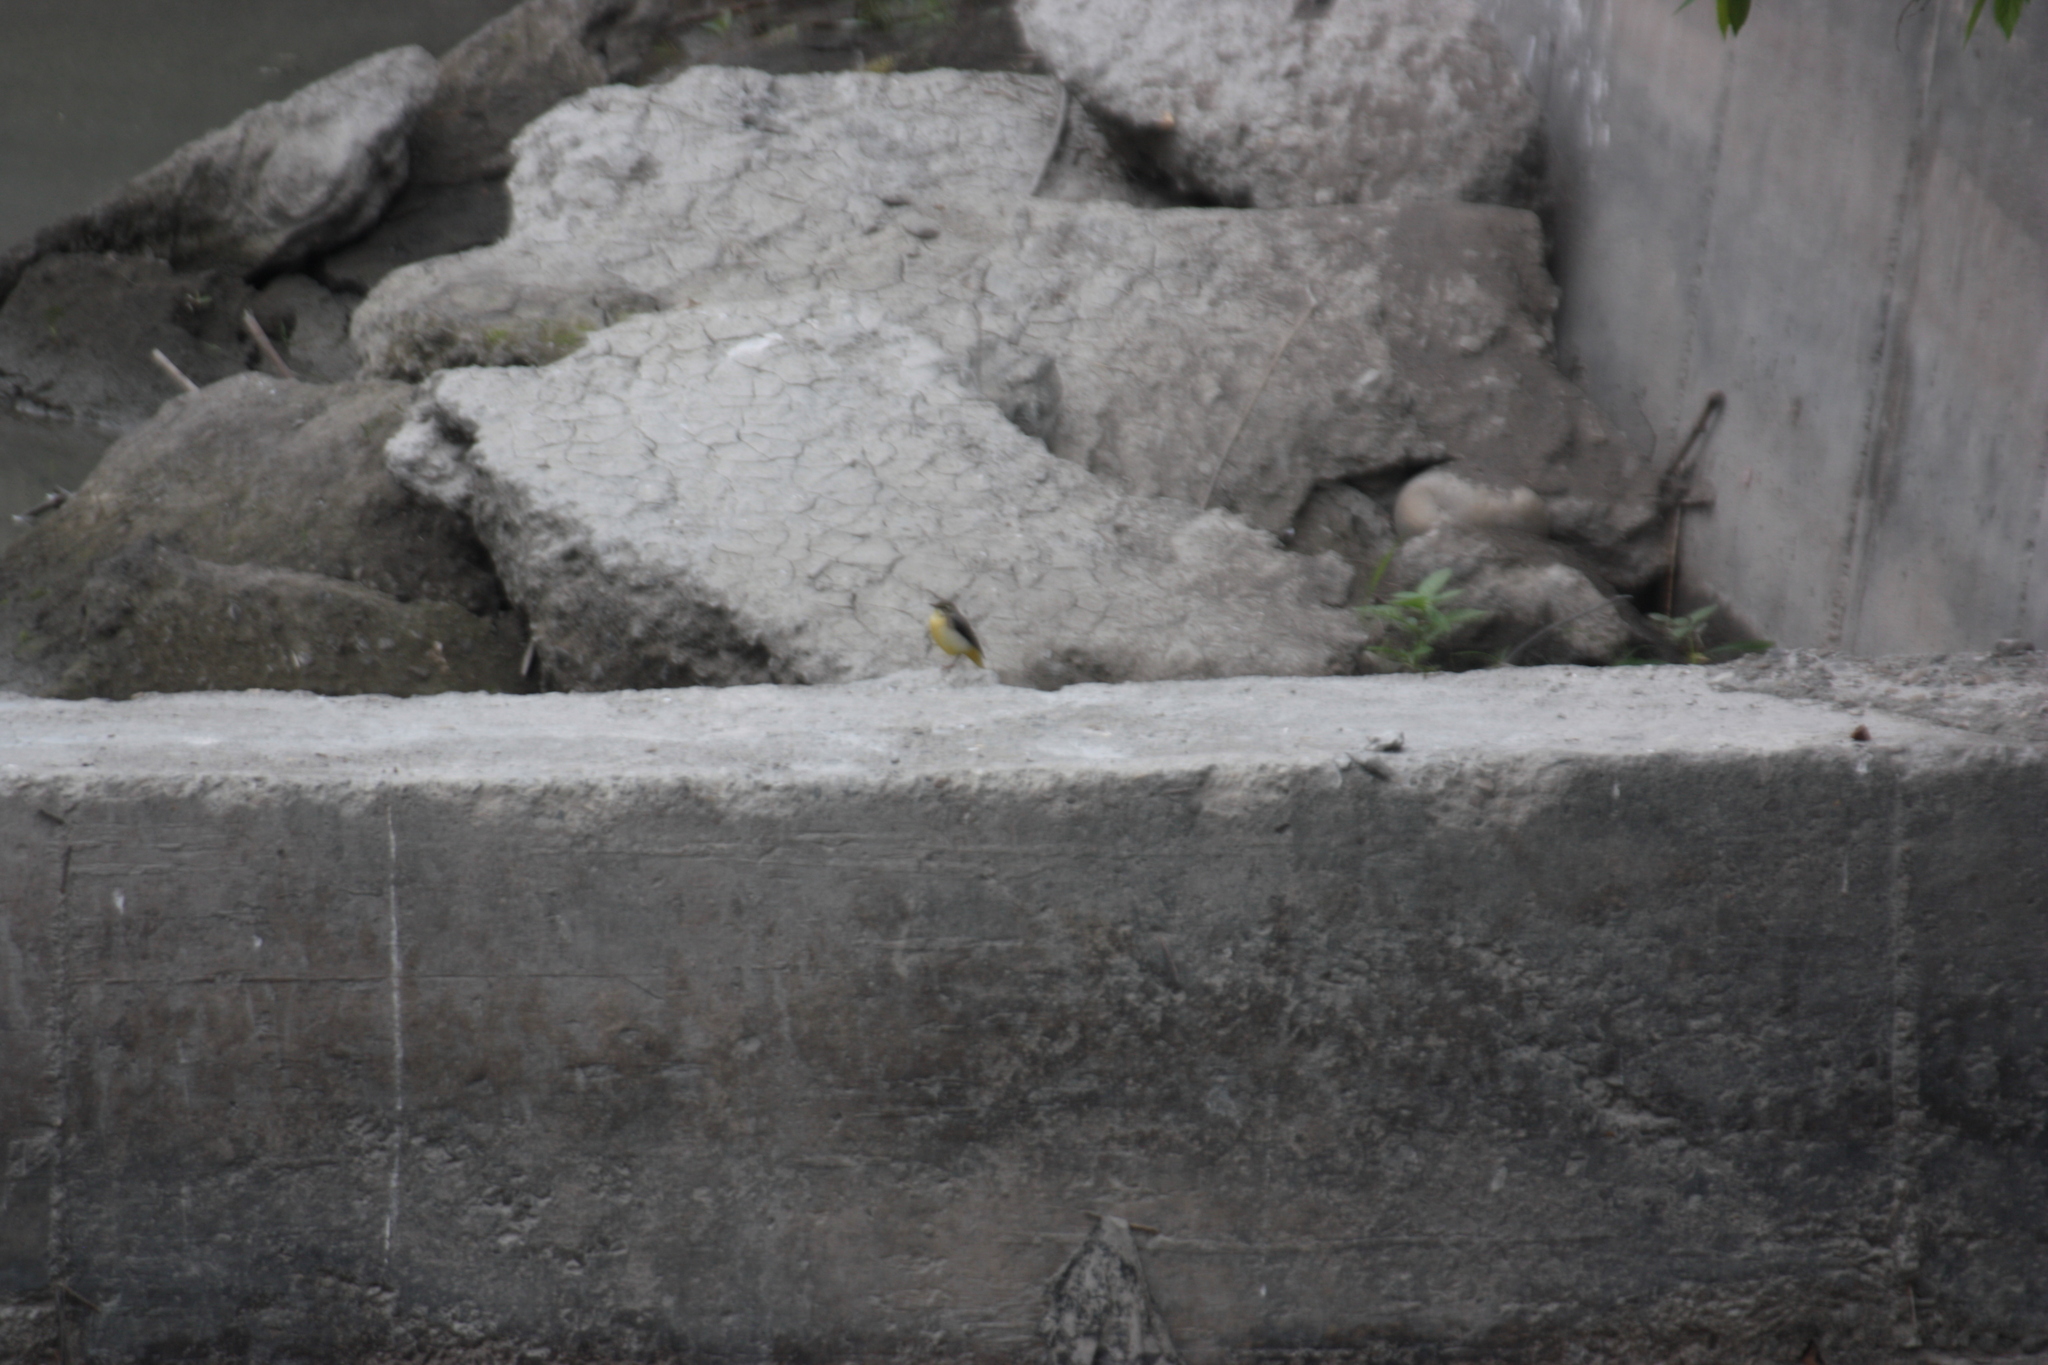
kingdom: Animalia
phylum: Chordata
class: Aves
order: Passeriformes
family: Motacillidae
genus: Motacilla
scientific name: Motacilla cinerea
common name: Grey wagtail
